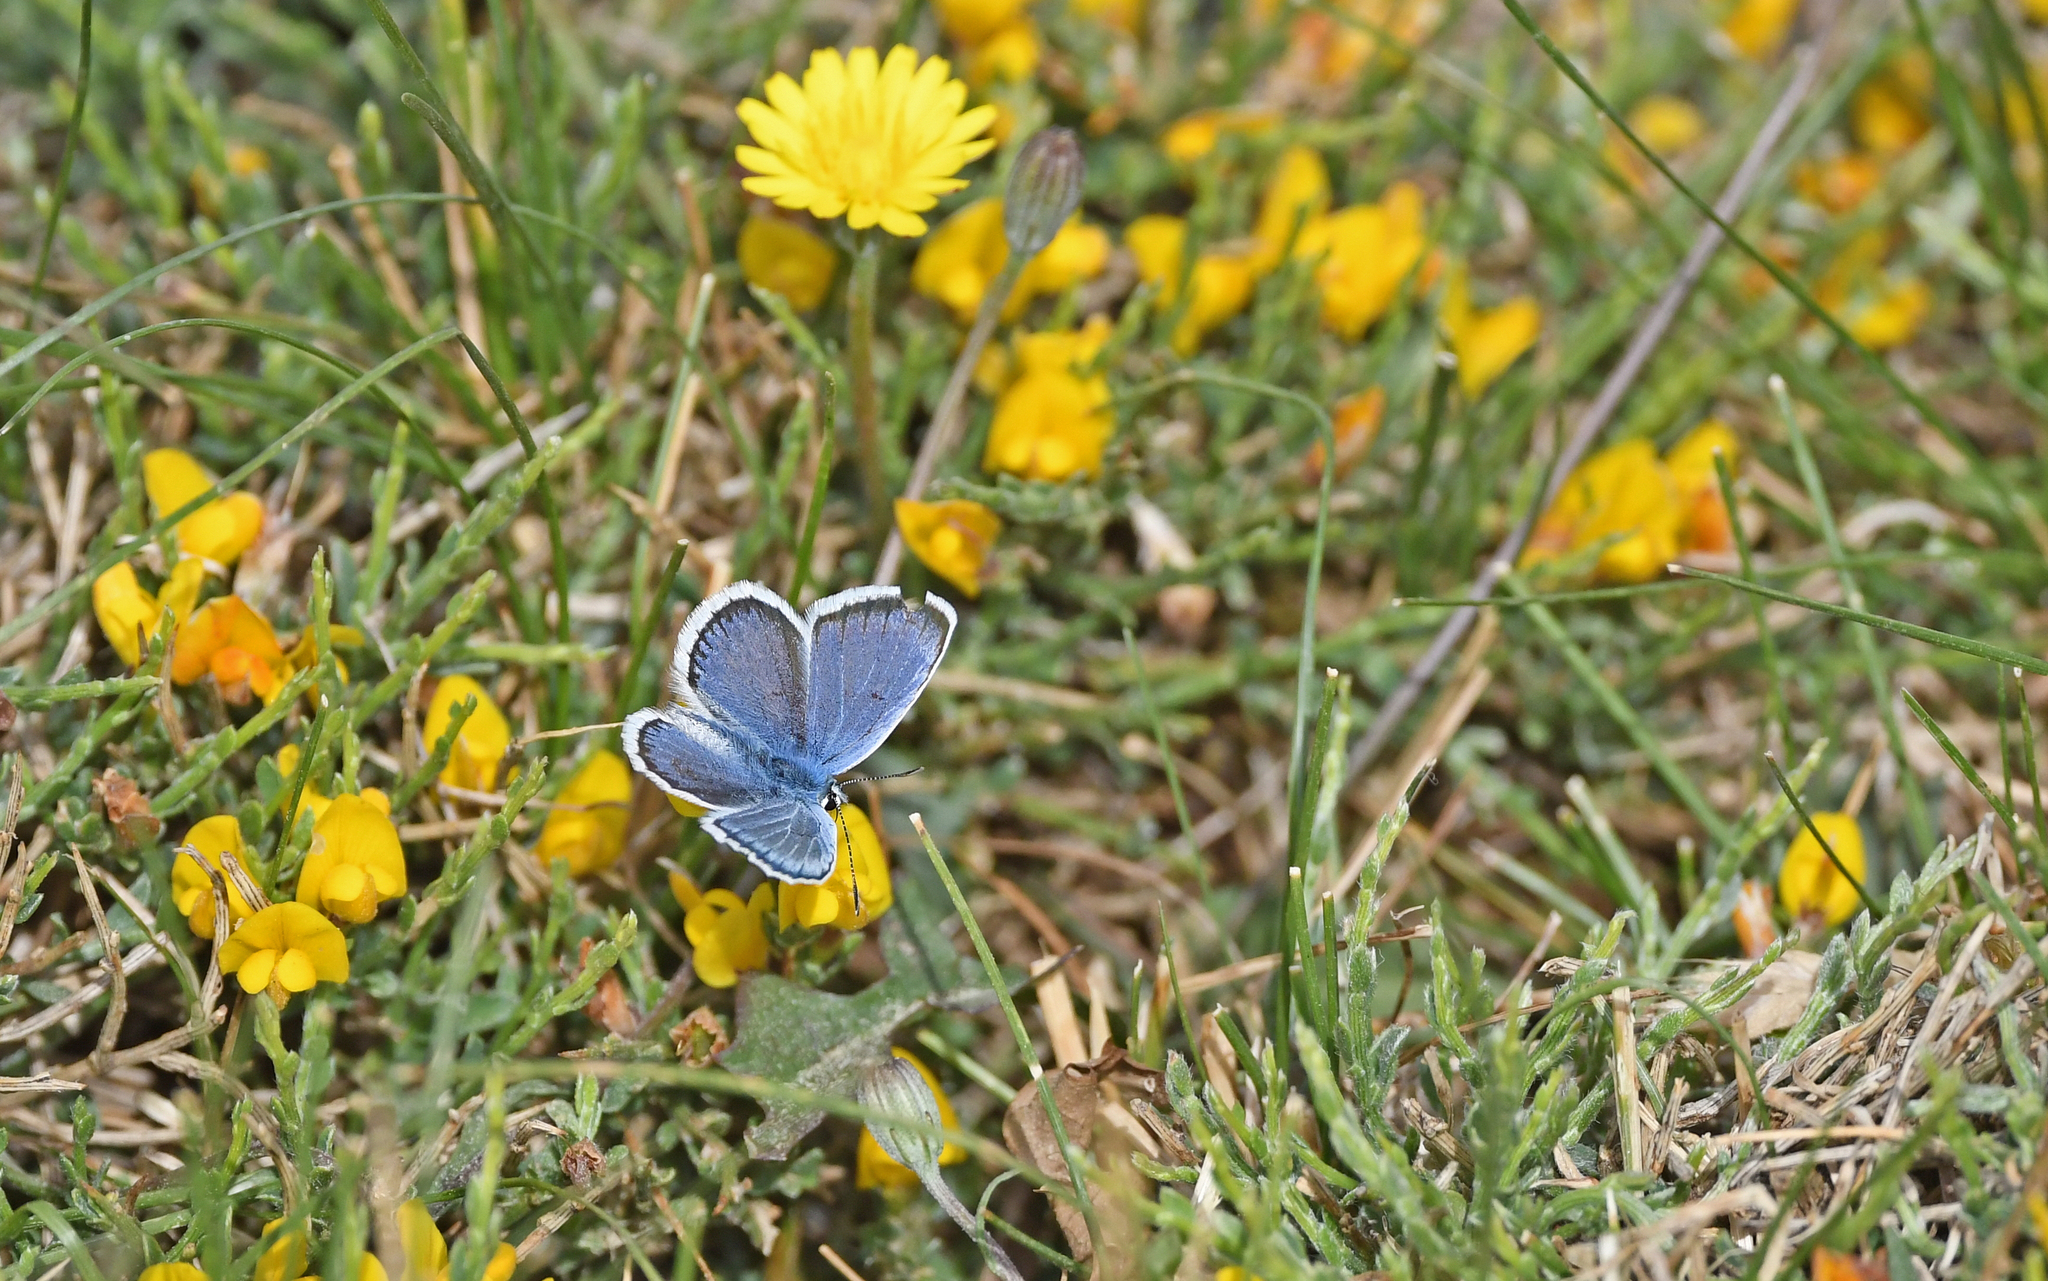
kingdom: Animalia
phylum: Arthropoda
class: Insecta
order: Lepidoptera
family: Lycaenidae
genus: Plebejus
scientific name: Plebejus argus
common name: Silver-studded blue
